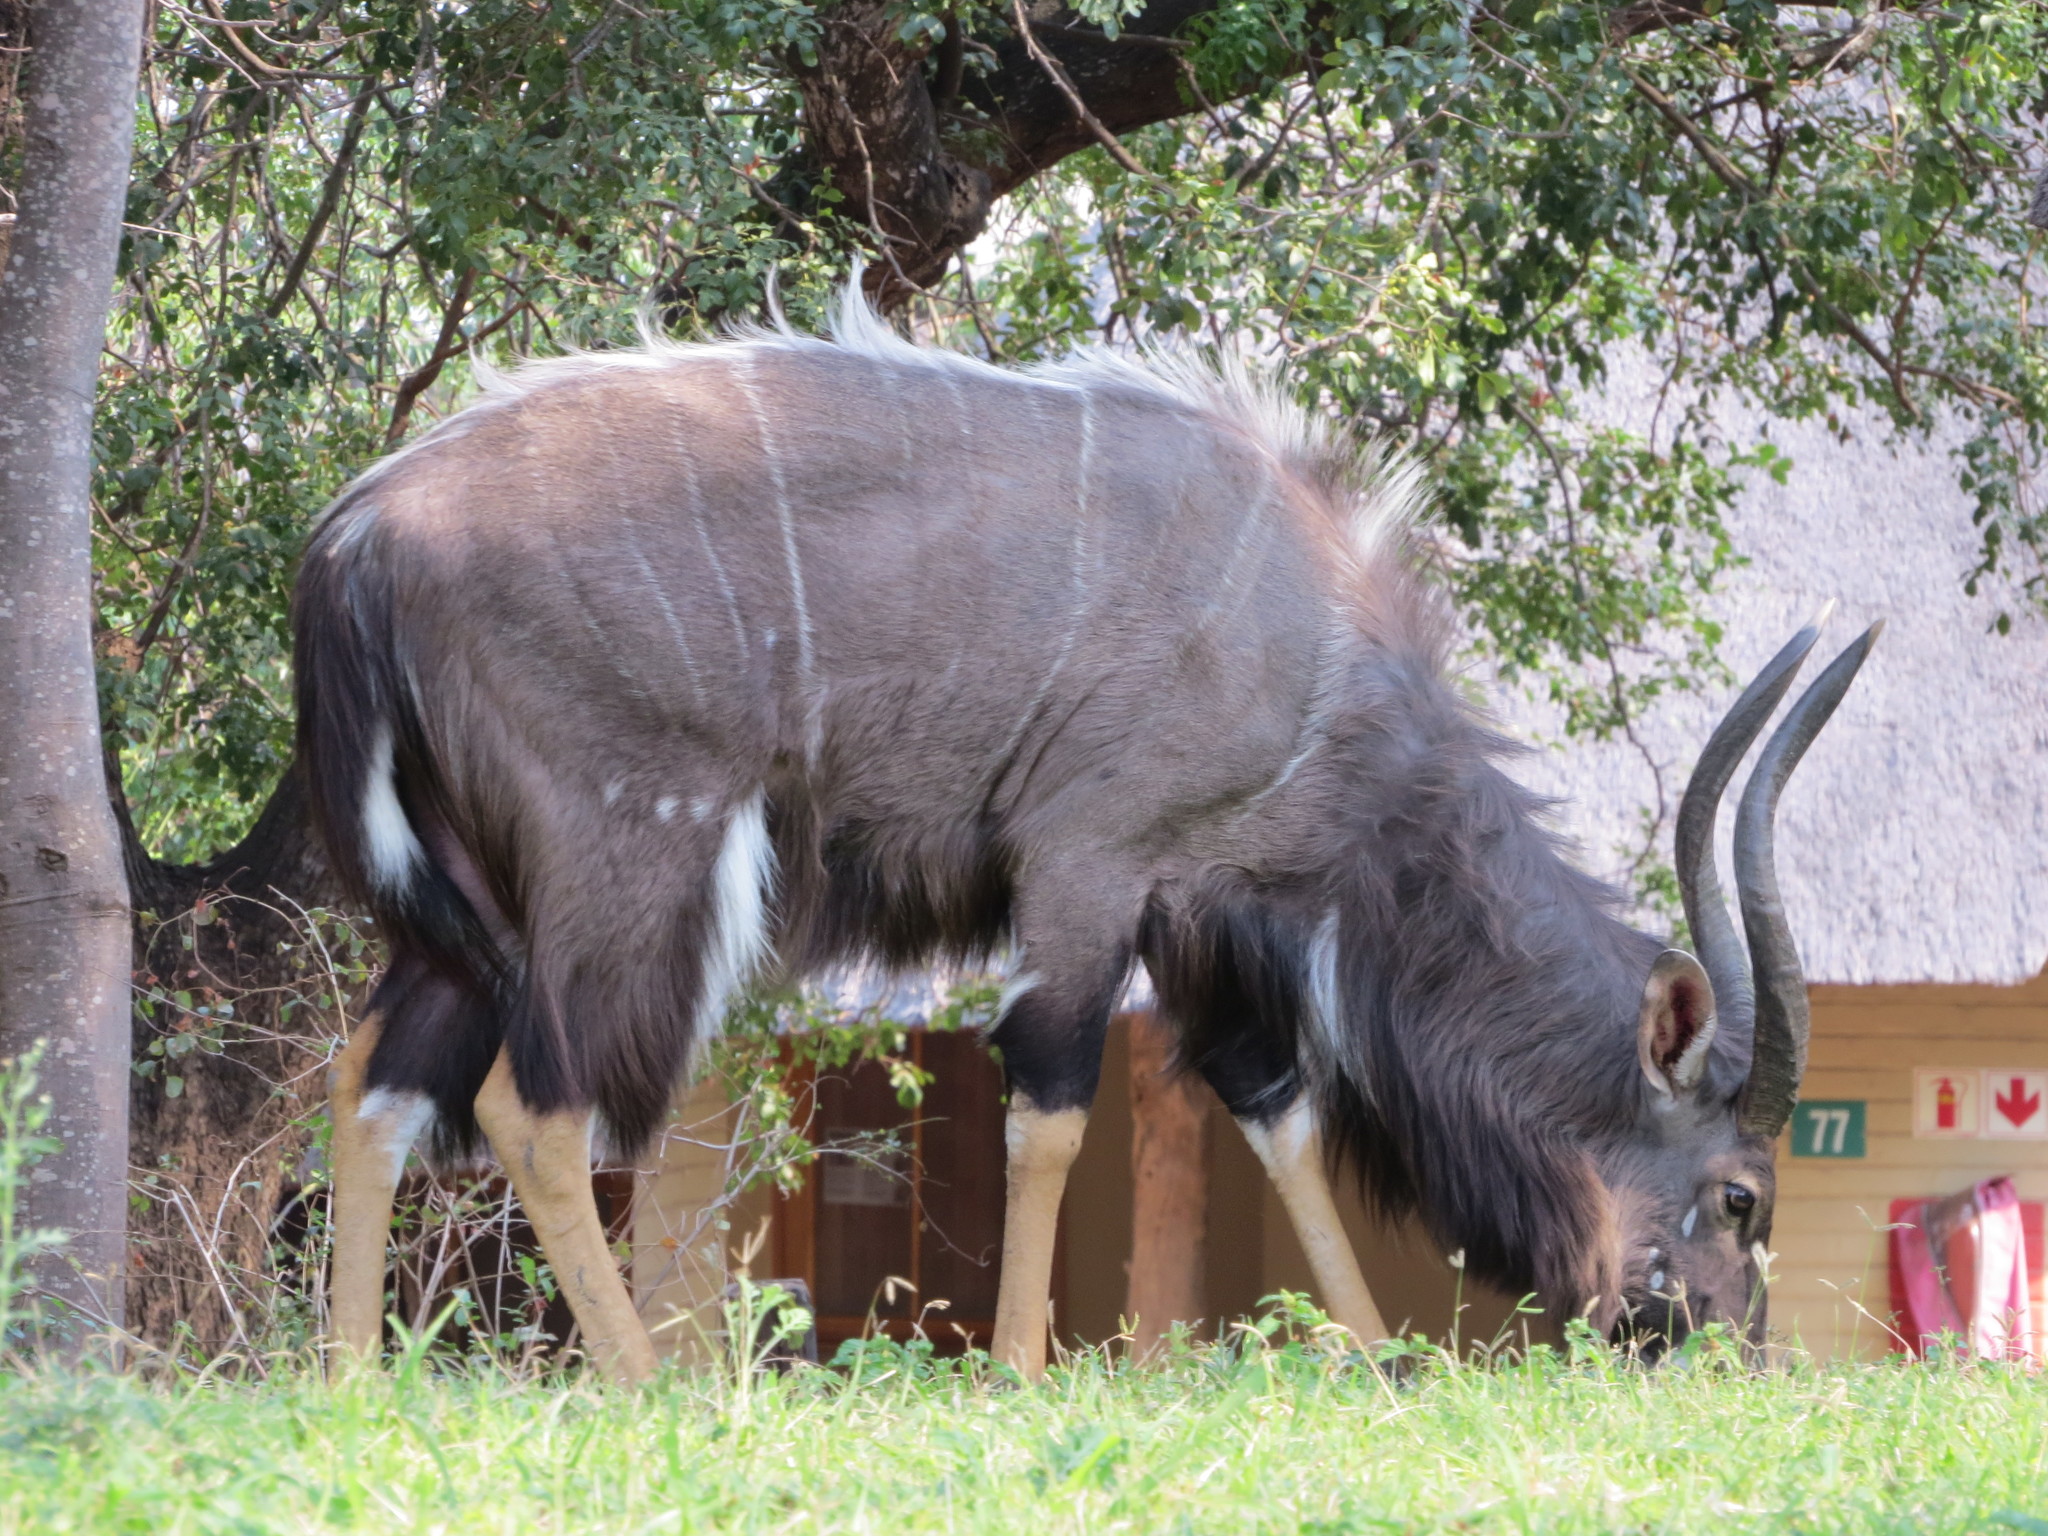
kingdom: Animalia
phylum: Chordata
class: Mammalia
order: Artiodactyla
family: Bovidae
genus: Tragelaphus
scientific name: Tragelaphus angasii
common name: Nyala
